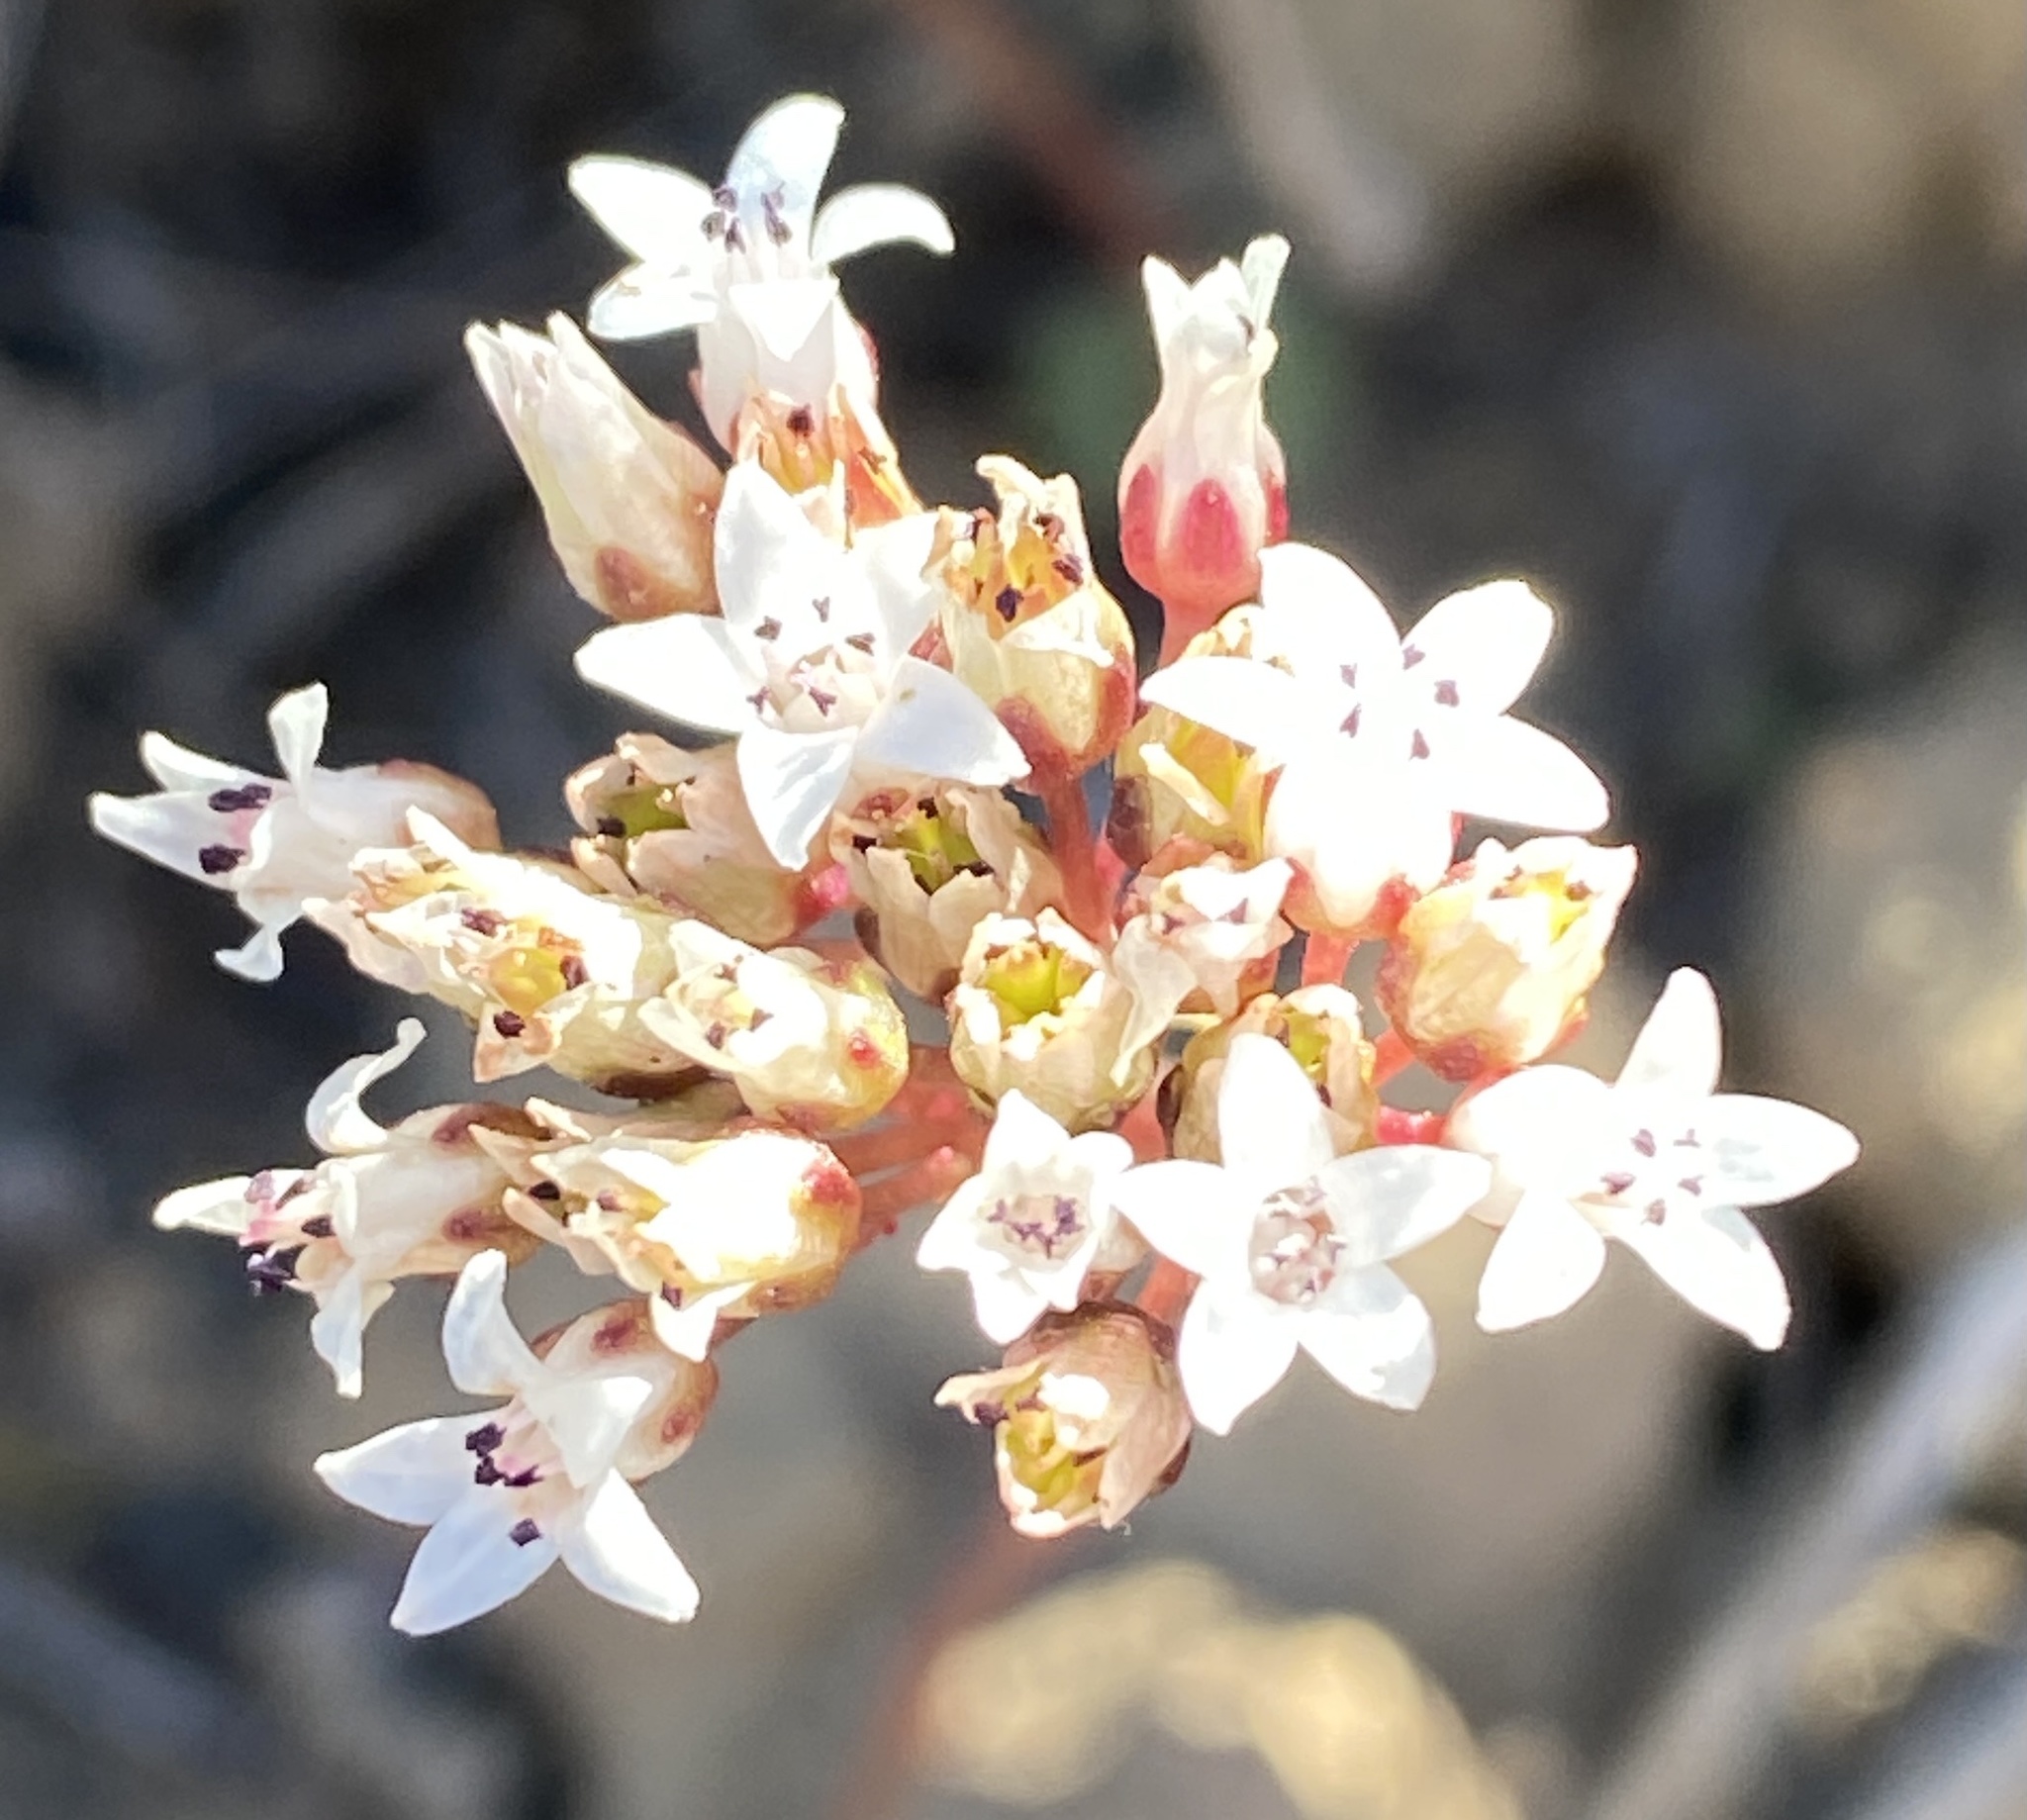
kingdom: Plantae
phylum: Tracheophyta
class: Magnoliopsida
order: Saxifragales
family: Crassulaceae
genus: Crassula
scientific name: Crassula saxifraga
